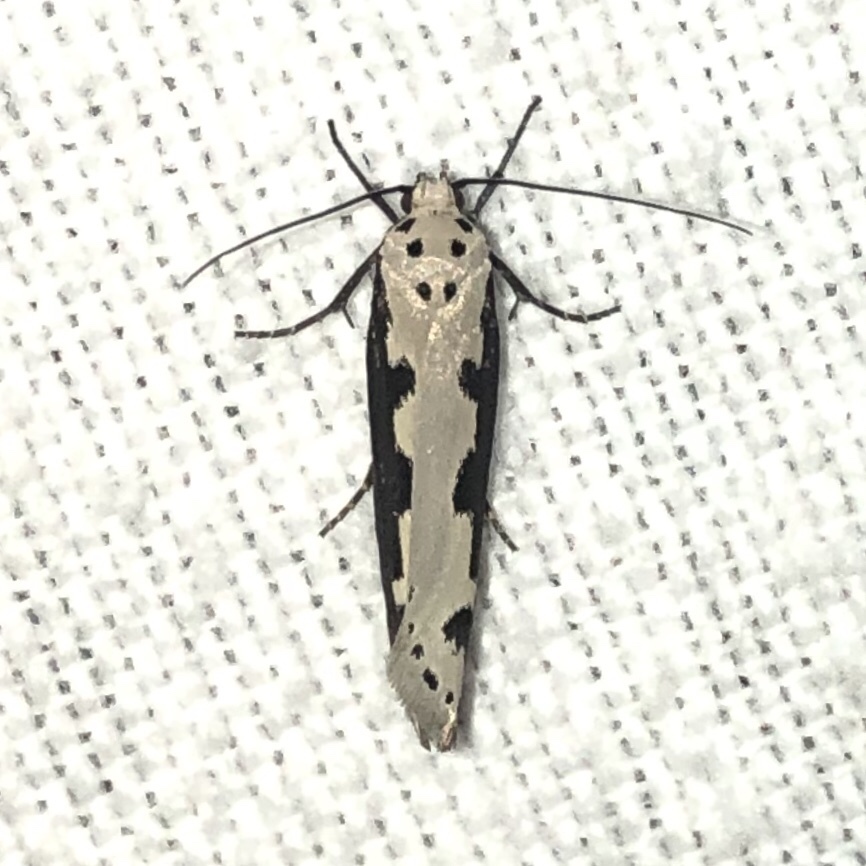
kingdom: Animalia
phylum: Arthropoda
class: Insecta
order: Lepidoptera
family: Ethmiidae
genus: Ethmia
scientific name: Ethmia bipunctella
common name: Bordered ermel
